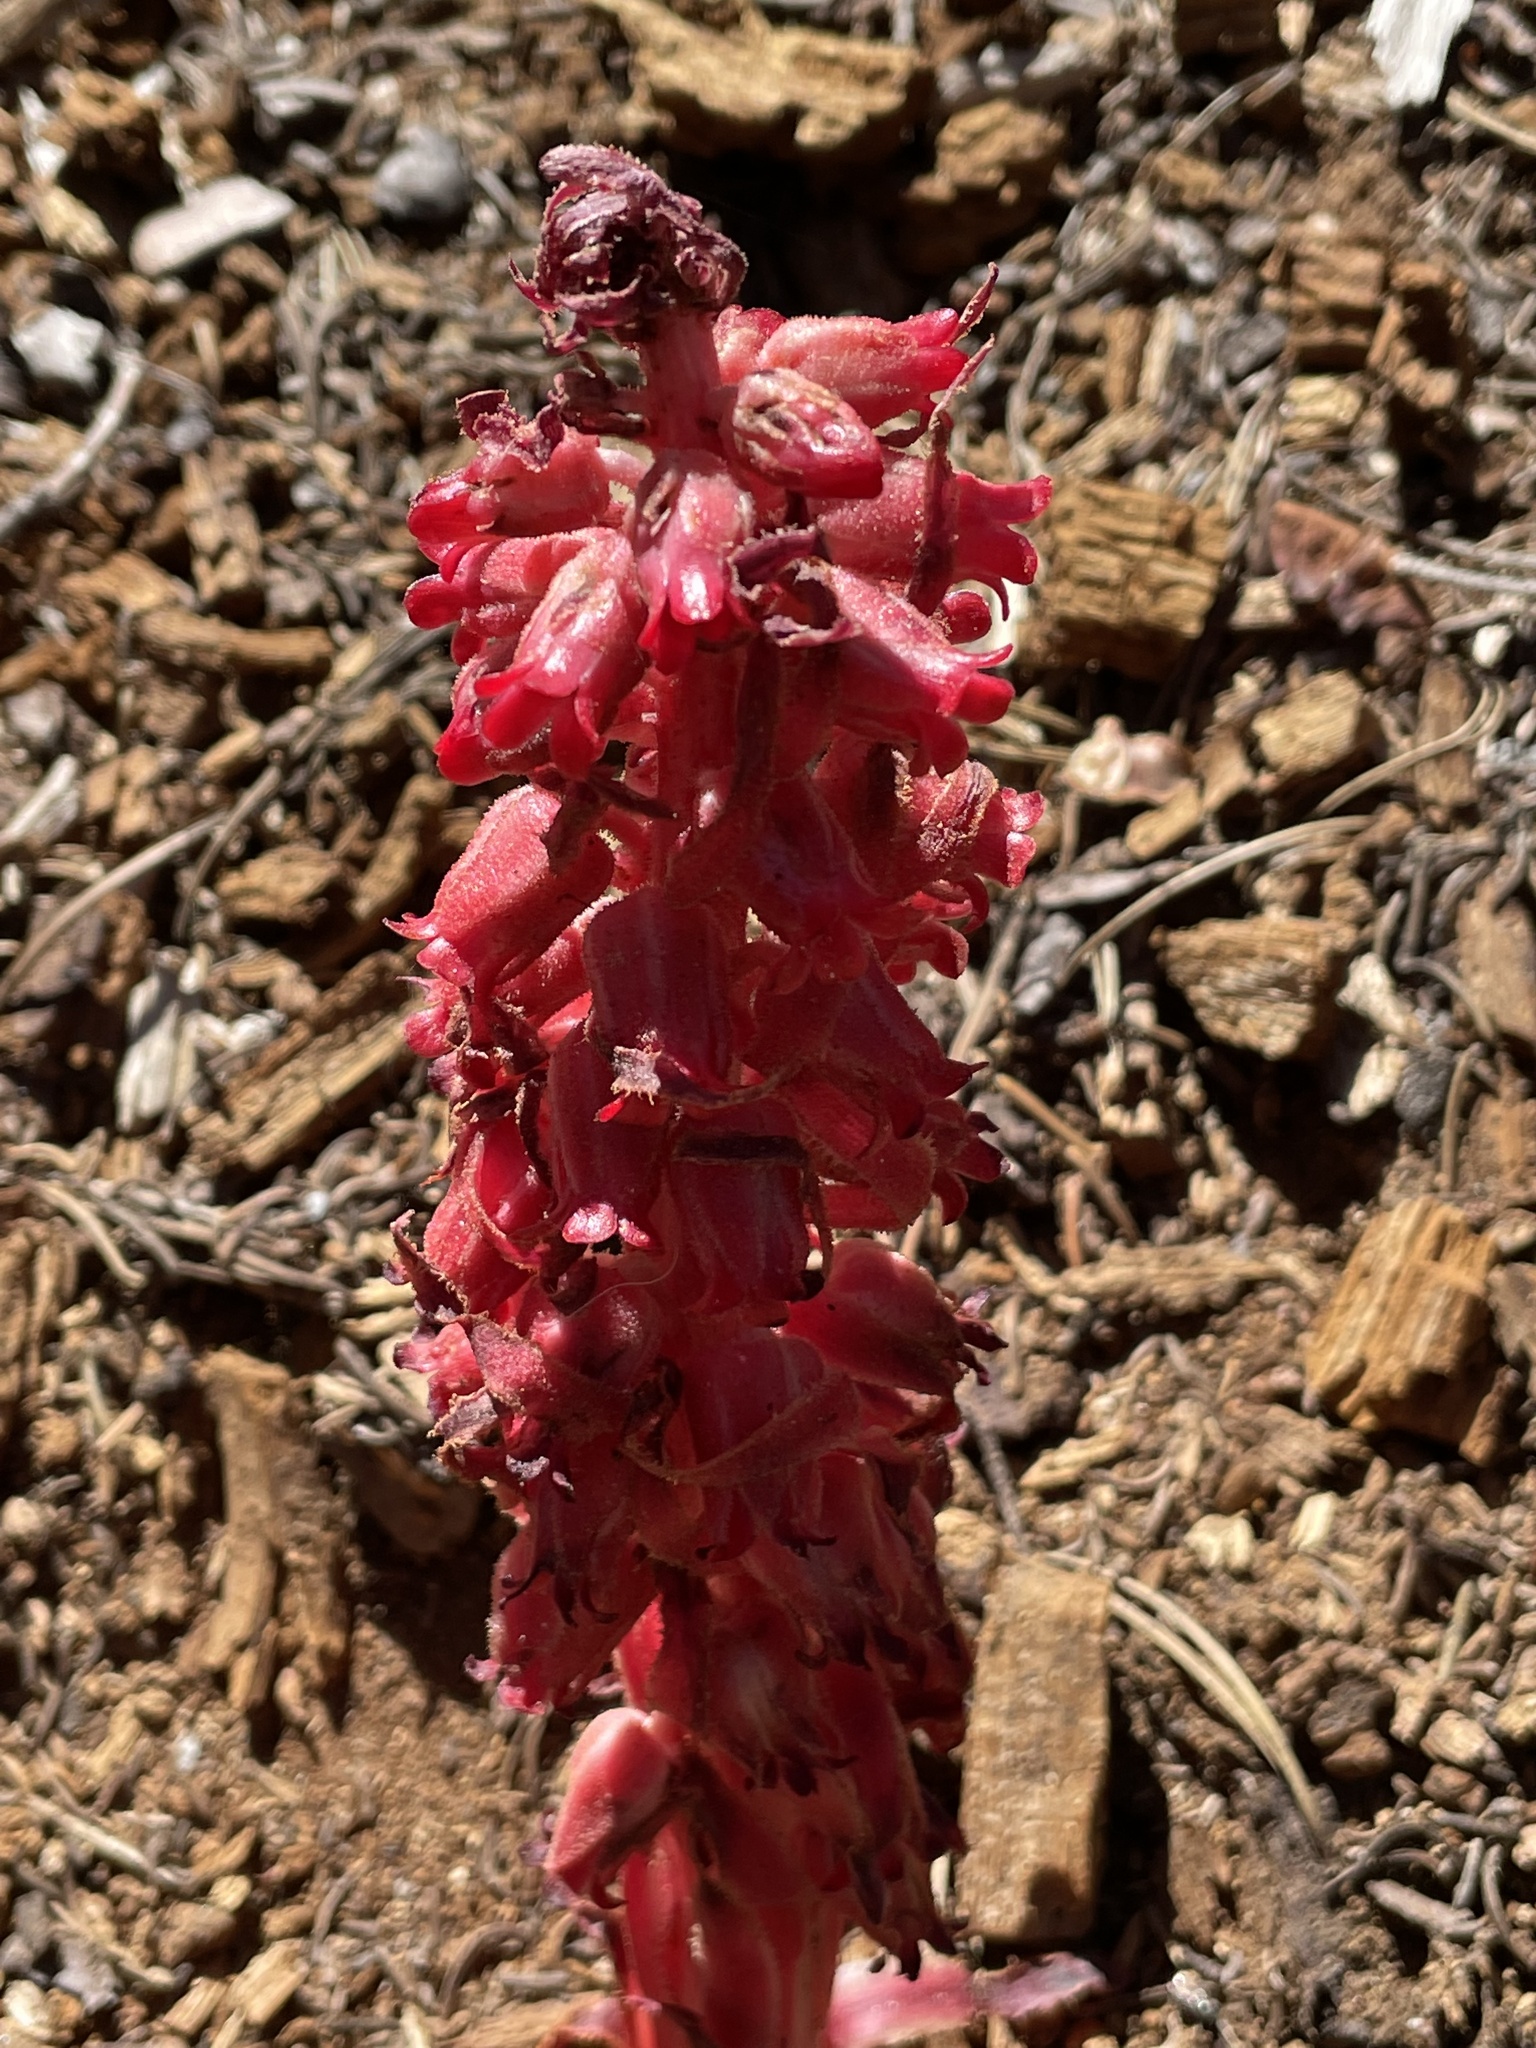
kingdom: Plantae
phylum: Tracheophyta
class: Magnoliopsida
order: Ericales
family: Ericaceae
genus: Sarcodes
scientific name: Sarcodes sanguinea
